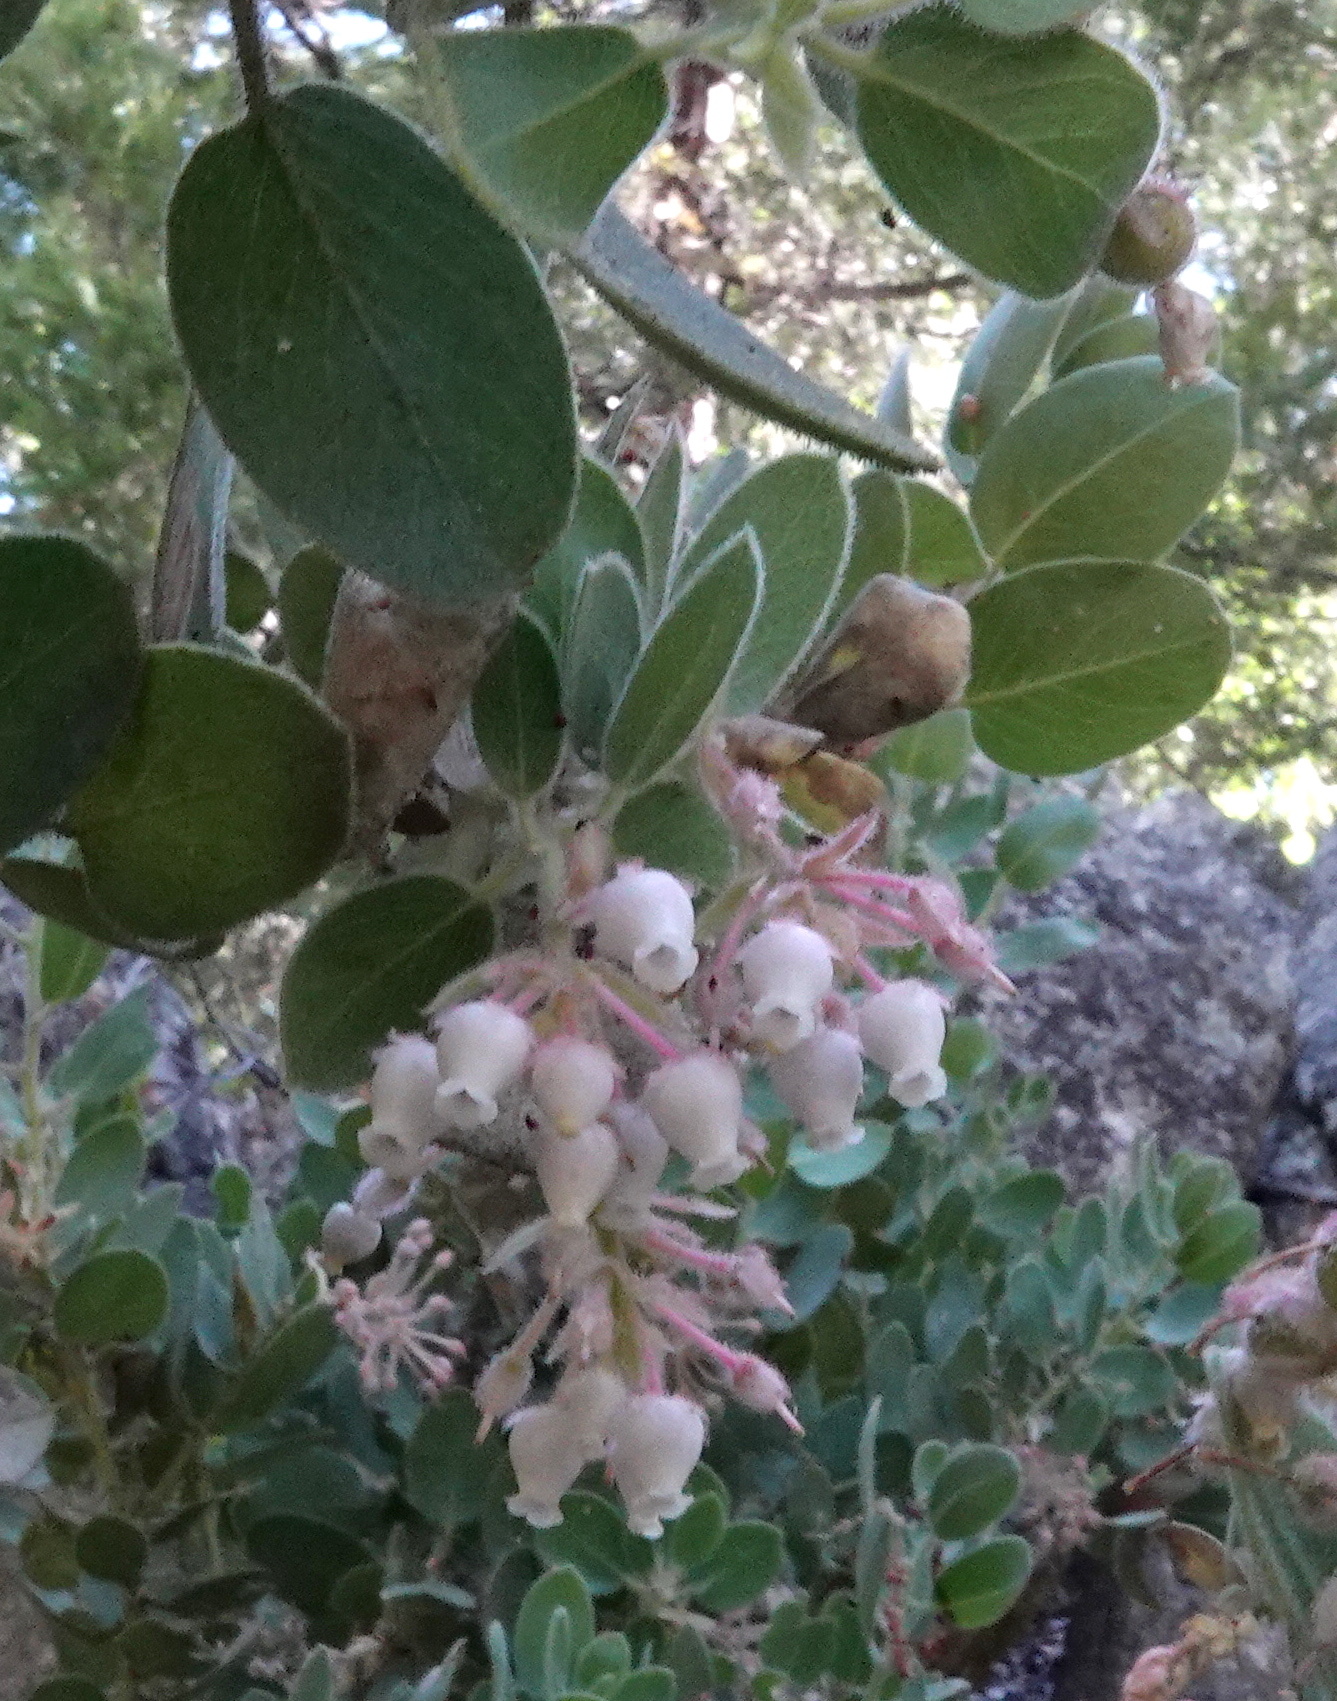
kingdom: Plantae
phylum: Tracheophyta
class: Magnoliopsida
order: Ericales
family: Ericaceae
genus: Arctostaphylos
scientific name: Arctostaphylos pringlei
